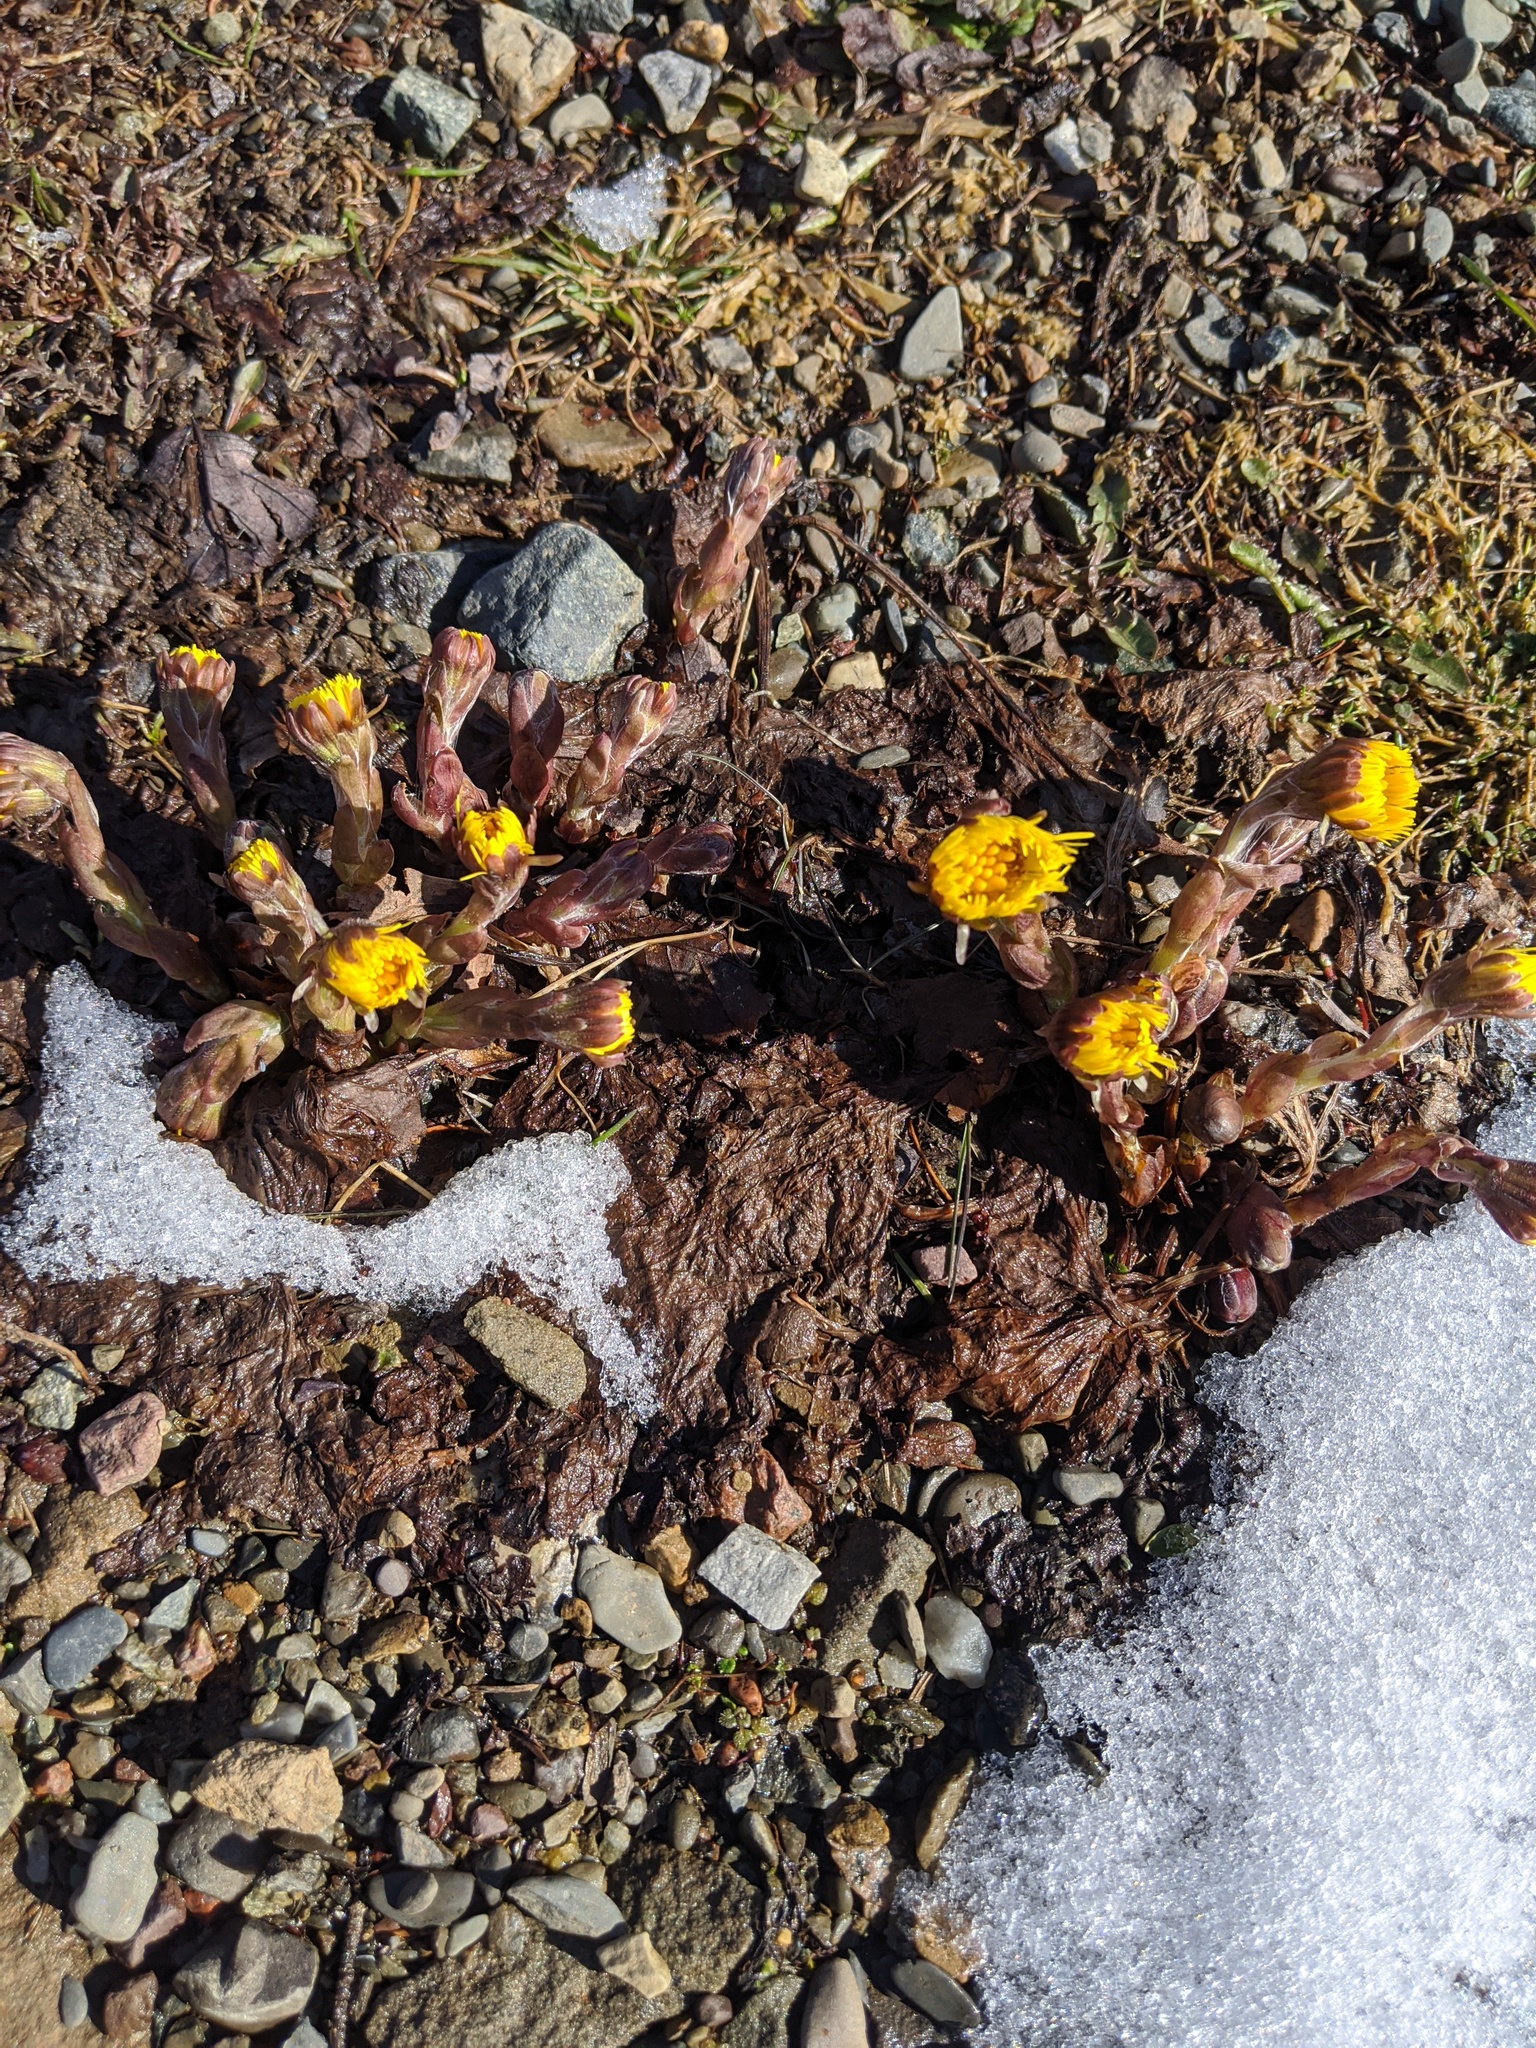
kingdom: Plantae
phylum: Tracheophyta
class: Magnoliopsida
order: Asterales
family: Asteraceae
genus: Tussilago
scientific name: Tussilago farfara
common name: Coltsfoot
